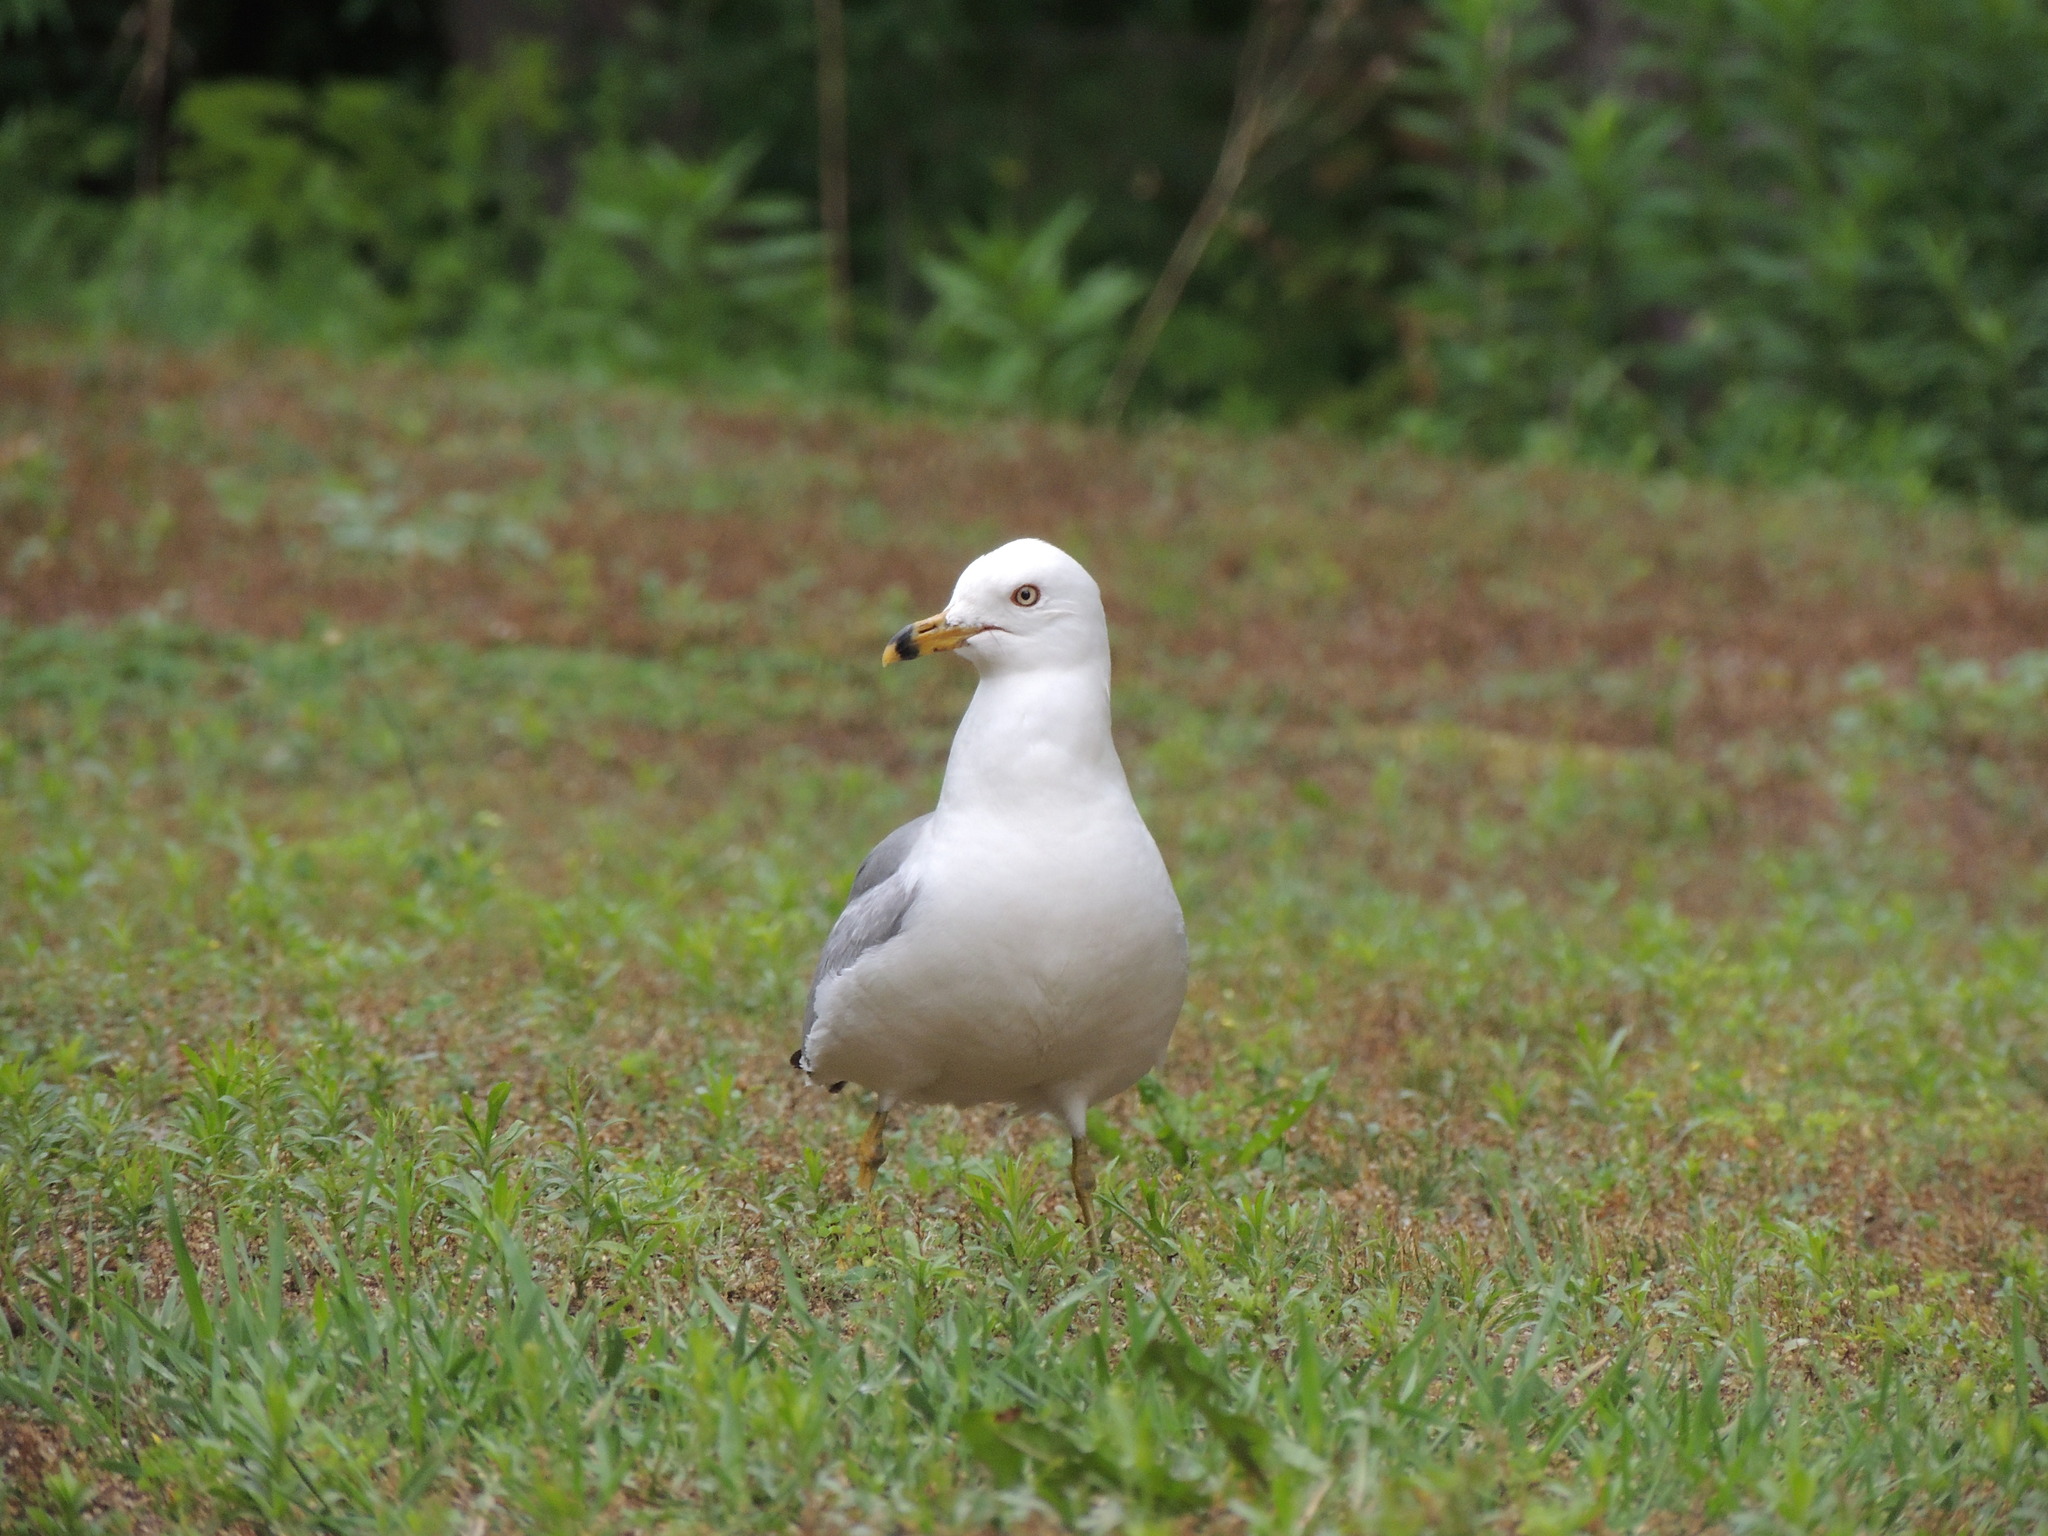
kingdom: Animalia
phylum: Chordata
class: Aves
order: Charadriiformes
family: Laridae
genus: Larus
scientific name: Larus delawarensis
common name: Ring-billed gull
